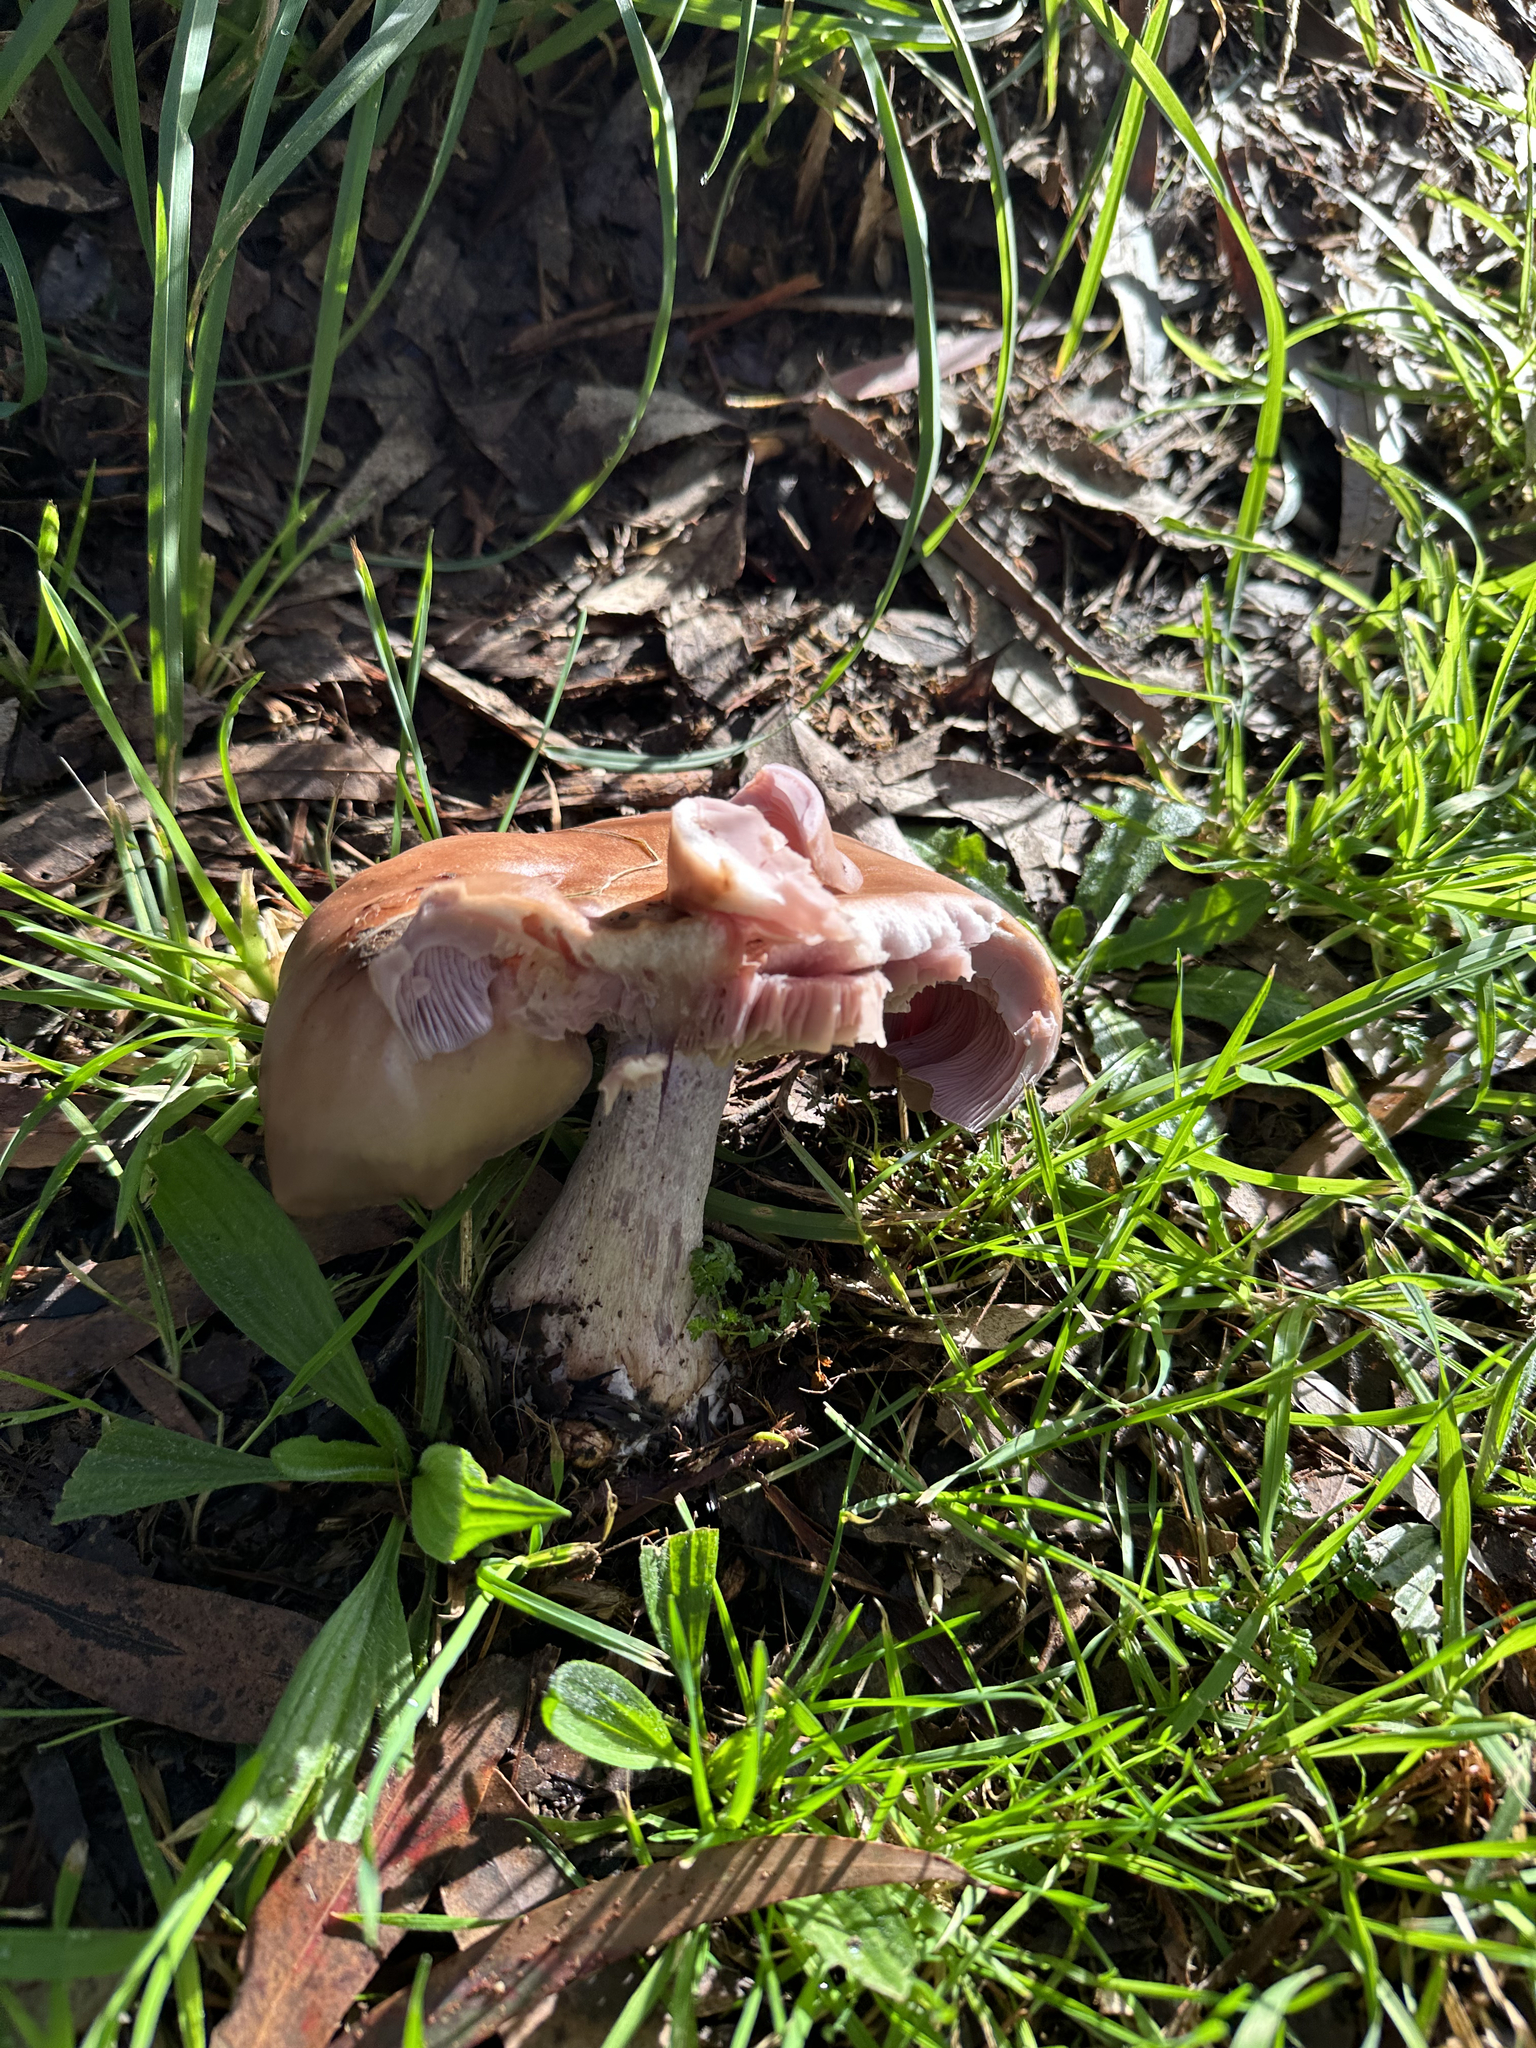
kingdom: Fungi
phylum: Basidiomycota
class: Agaricomycetes
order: Agaricales
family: Tricholomataceae
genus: Collybia
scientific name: Collybia
